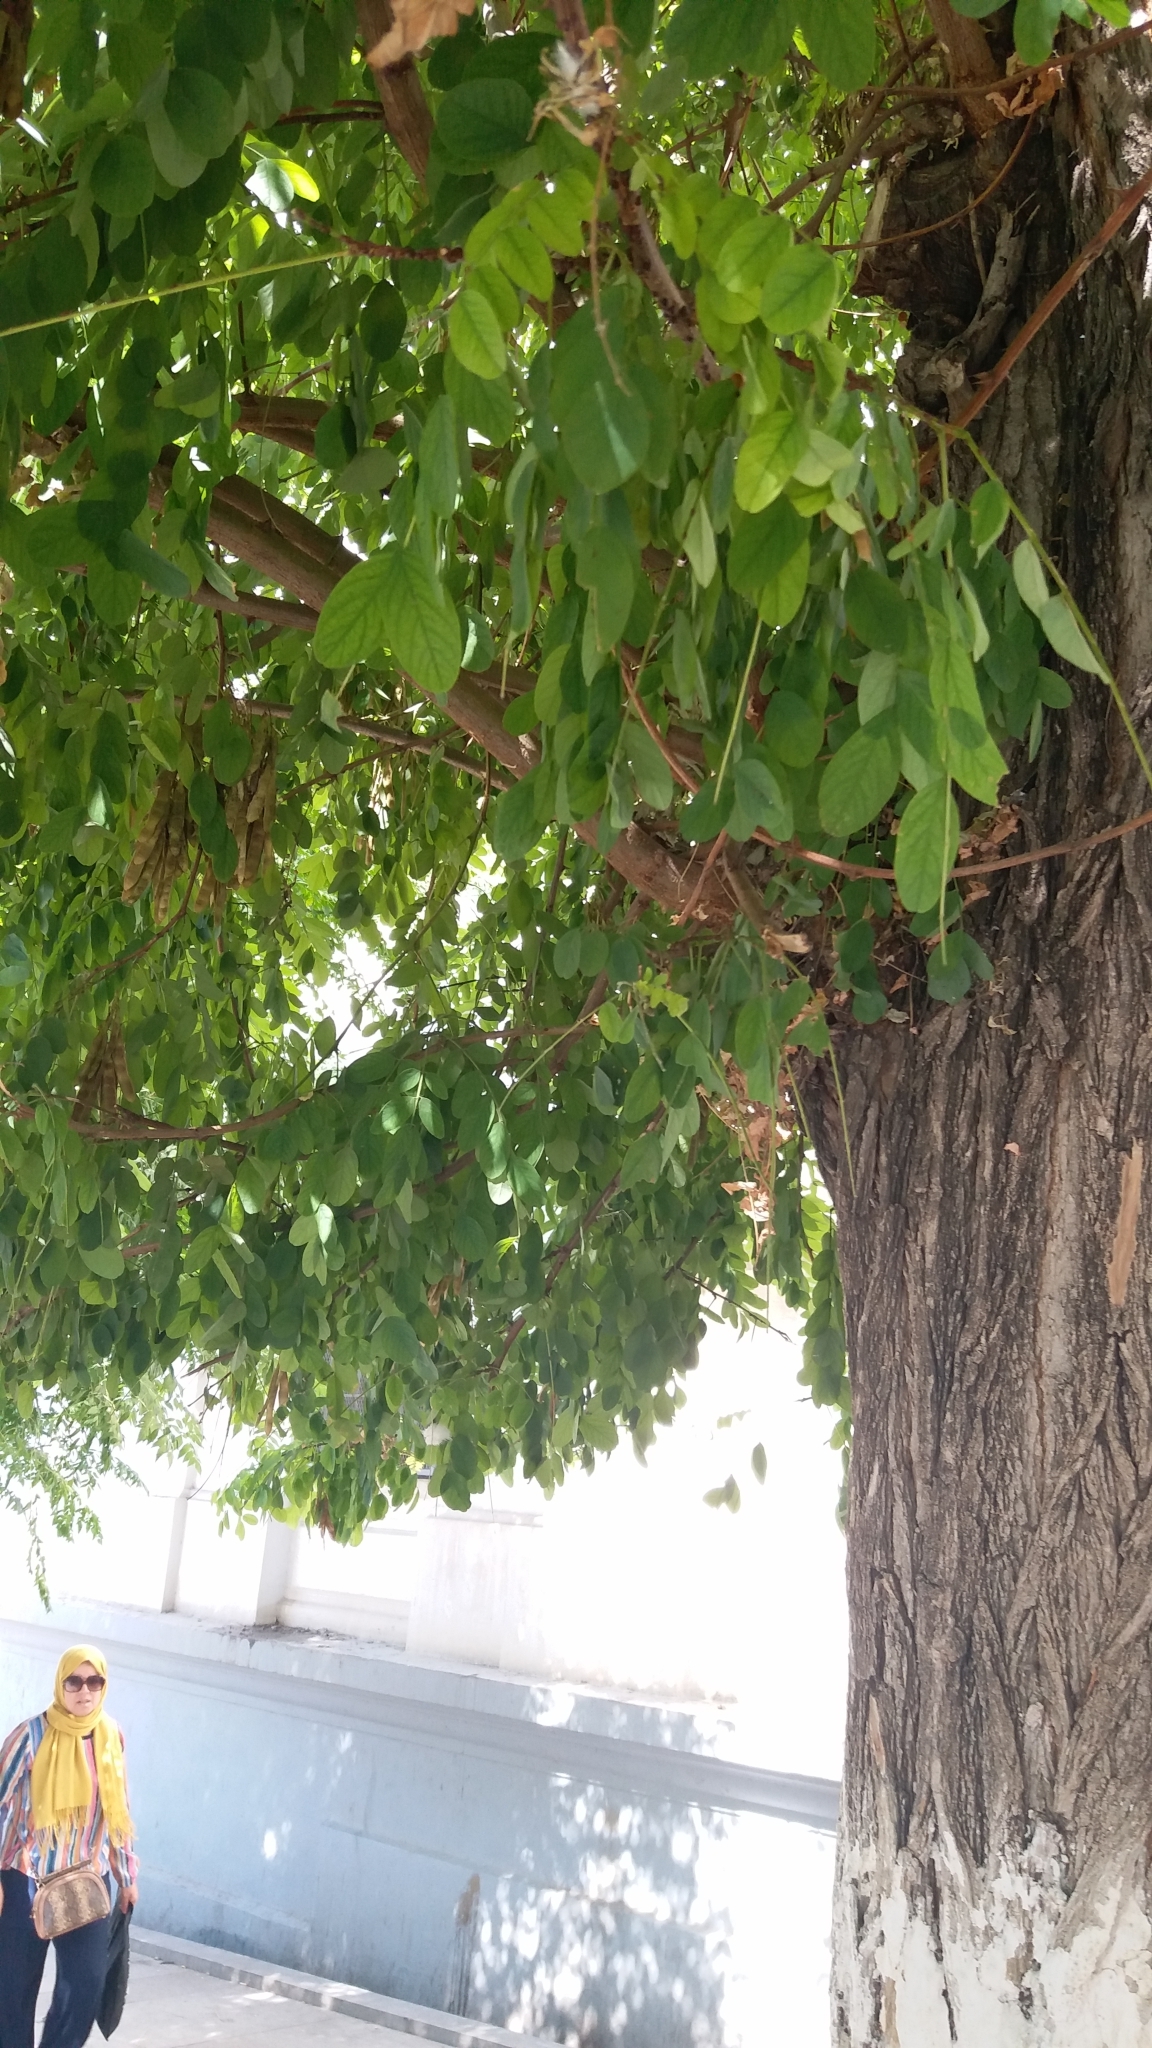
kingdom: Plantae
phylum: Tracheophyta
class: Magnoliopsida
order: Fabales
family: Fabaceae
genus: Robinia
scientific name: Robinia pseudoacacia
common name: Black locust
